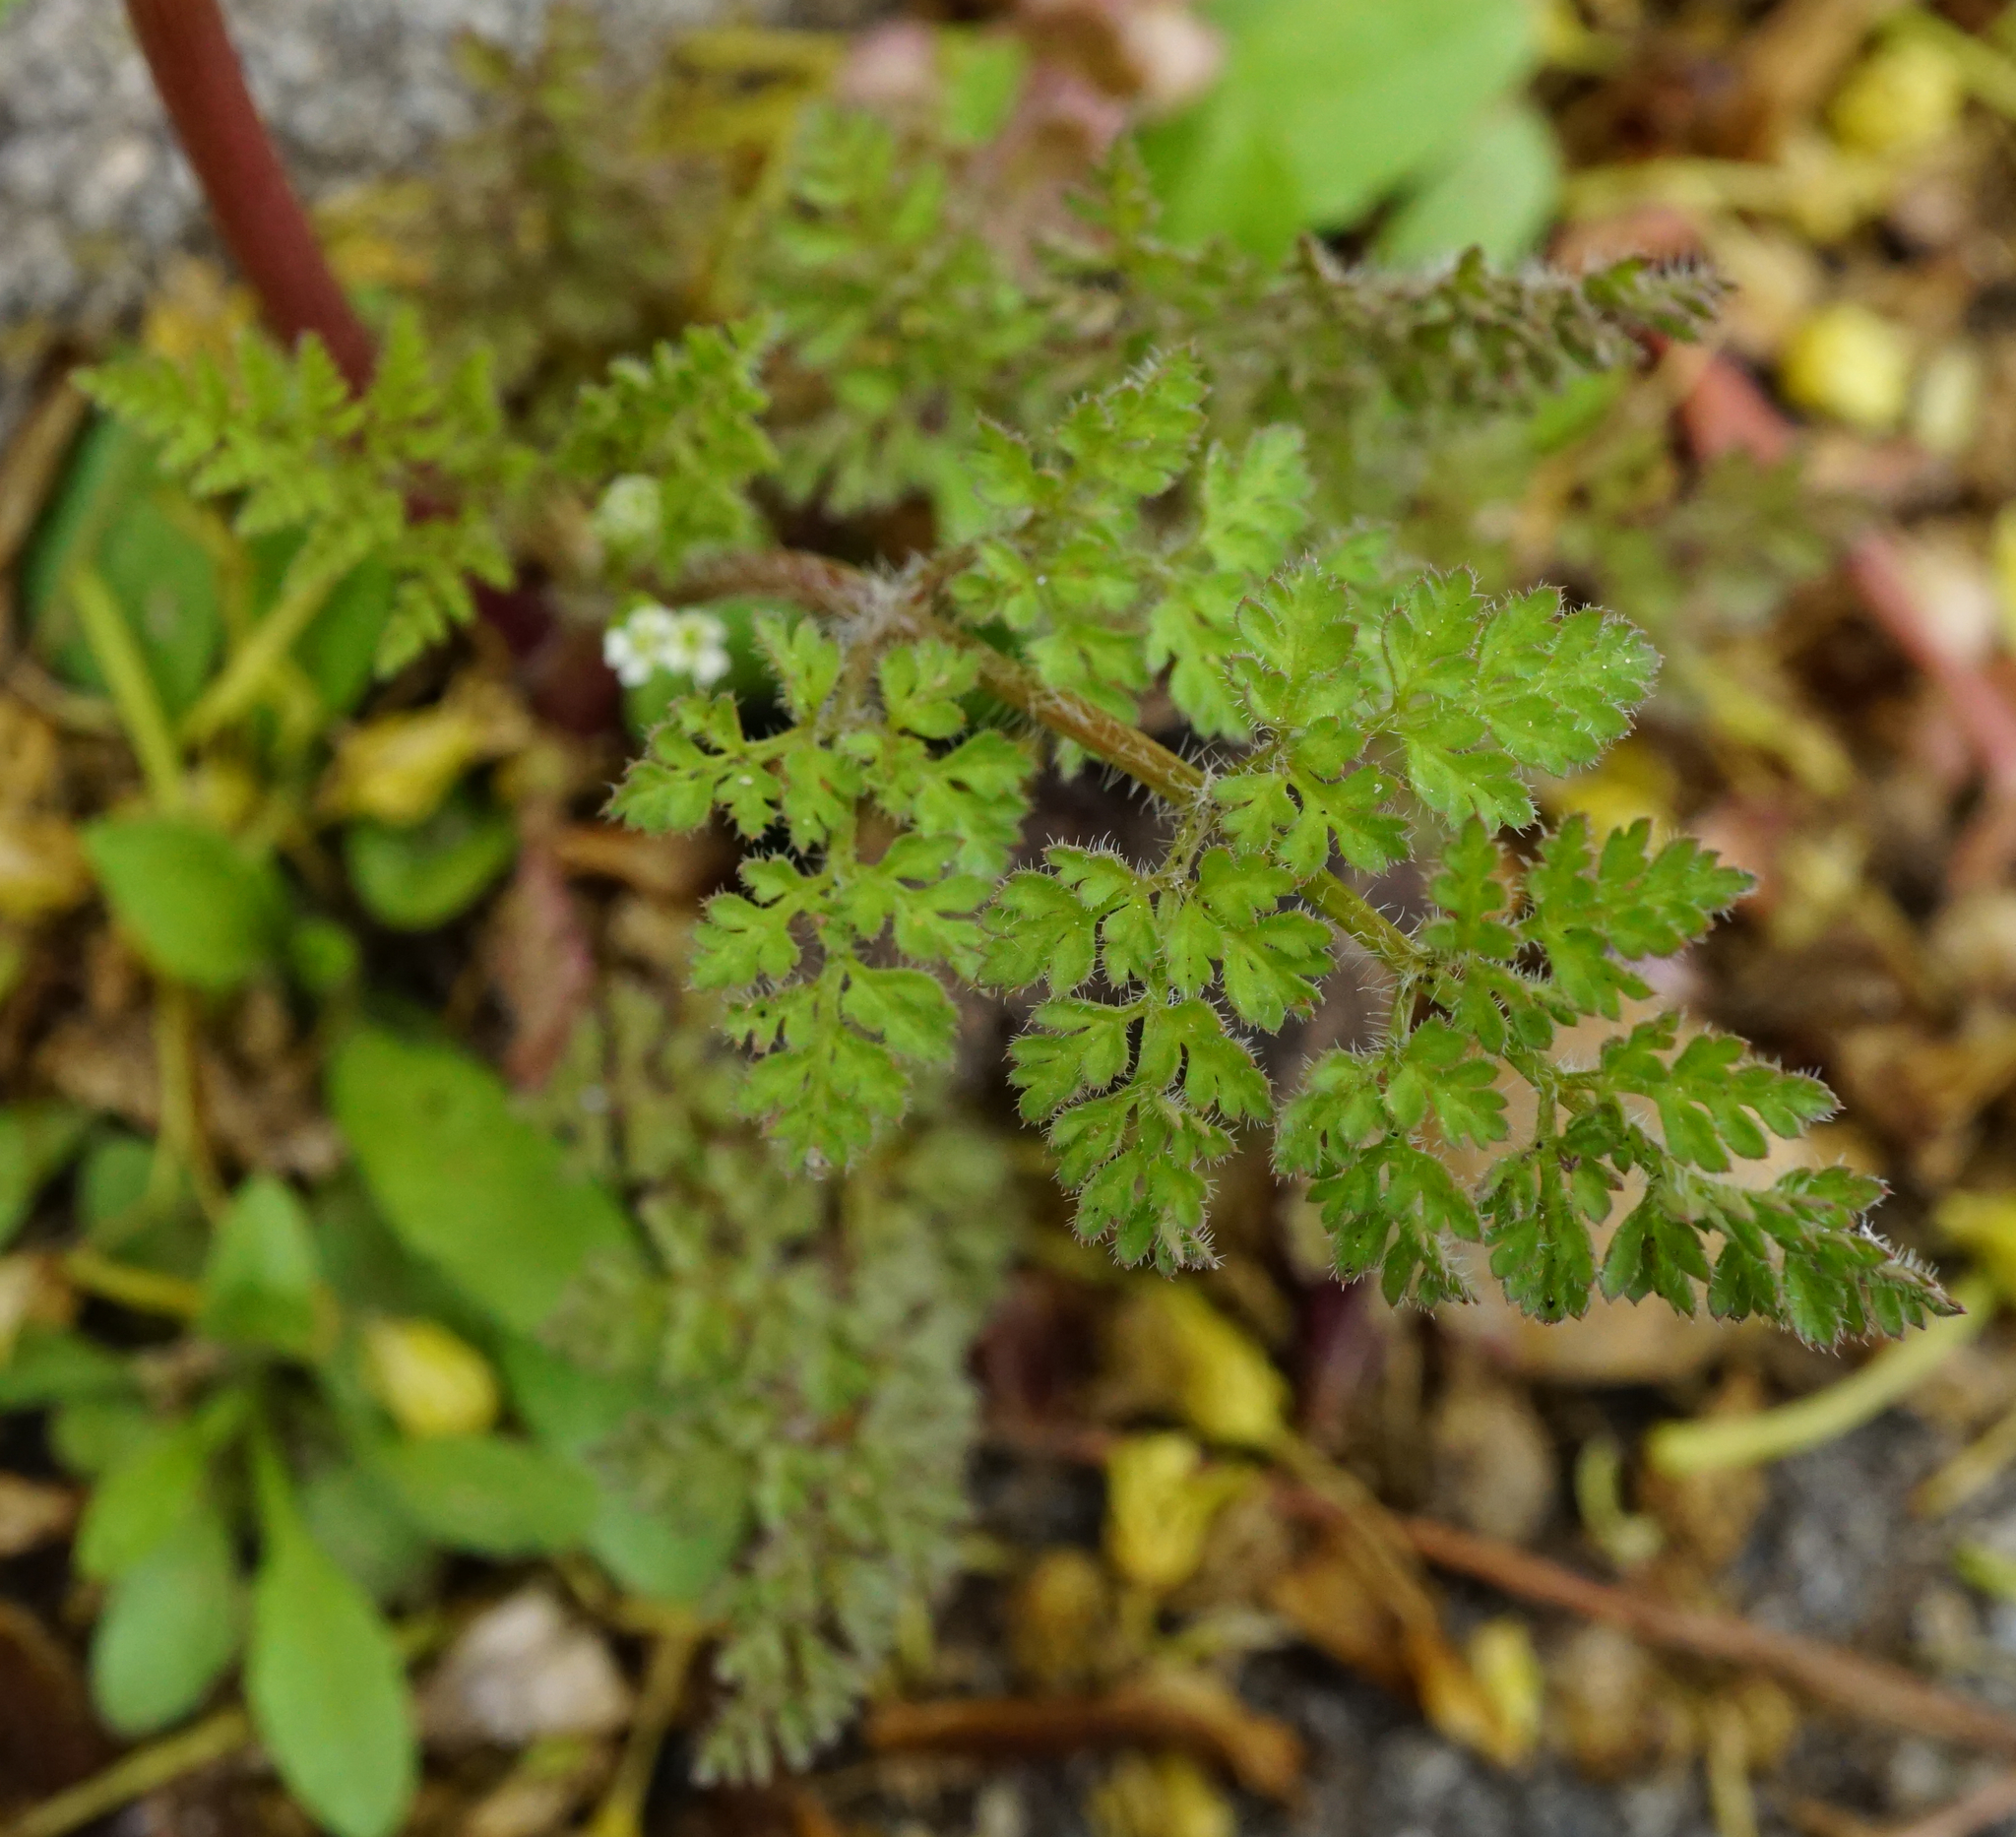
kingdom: Plantae
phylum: Tracheophyta
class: Magnoliopsida
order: Apiales
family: Apiaceae
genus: Anthriscus
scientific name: Anthriscus caucalis
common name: Bur chervil
